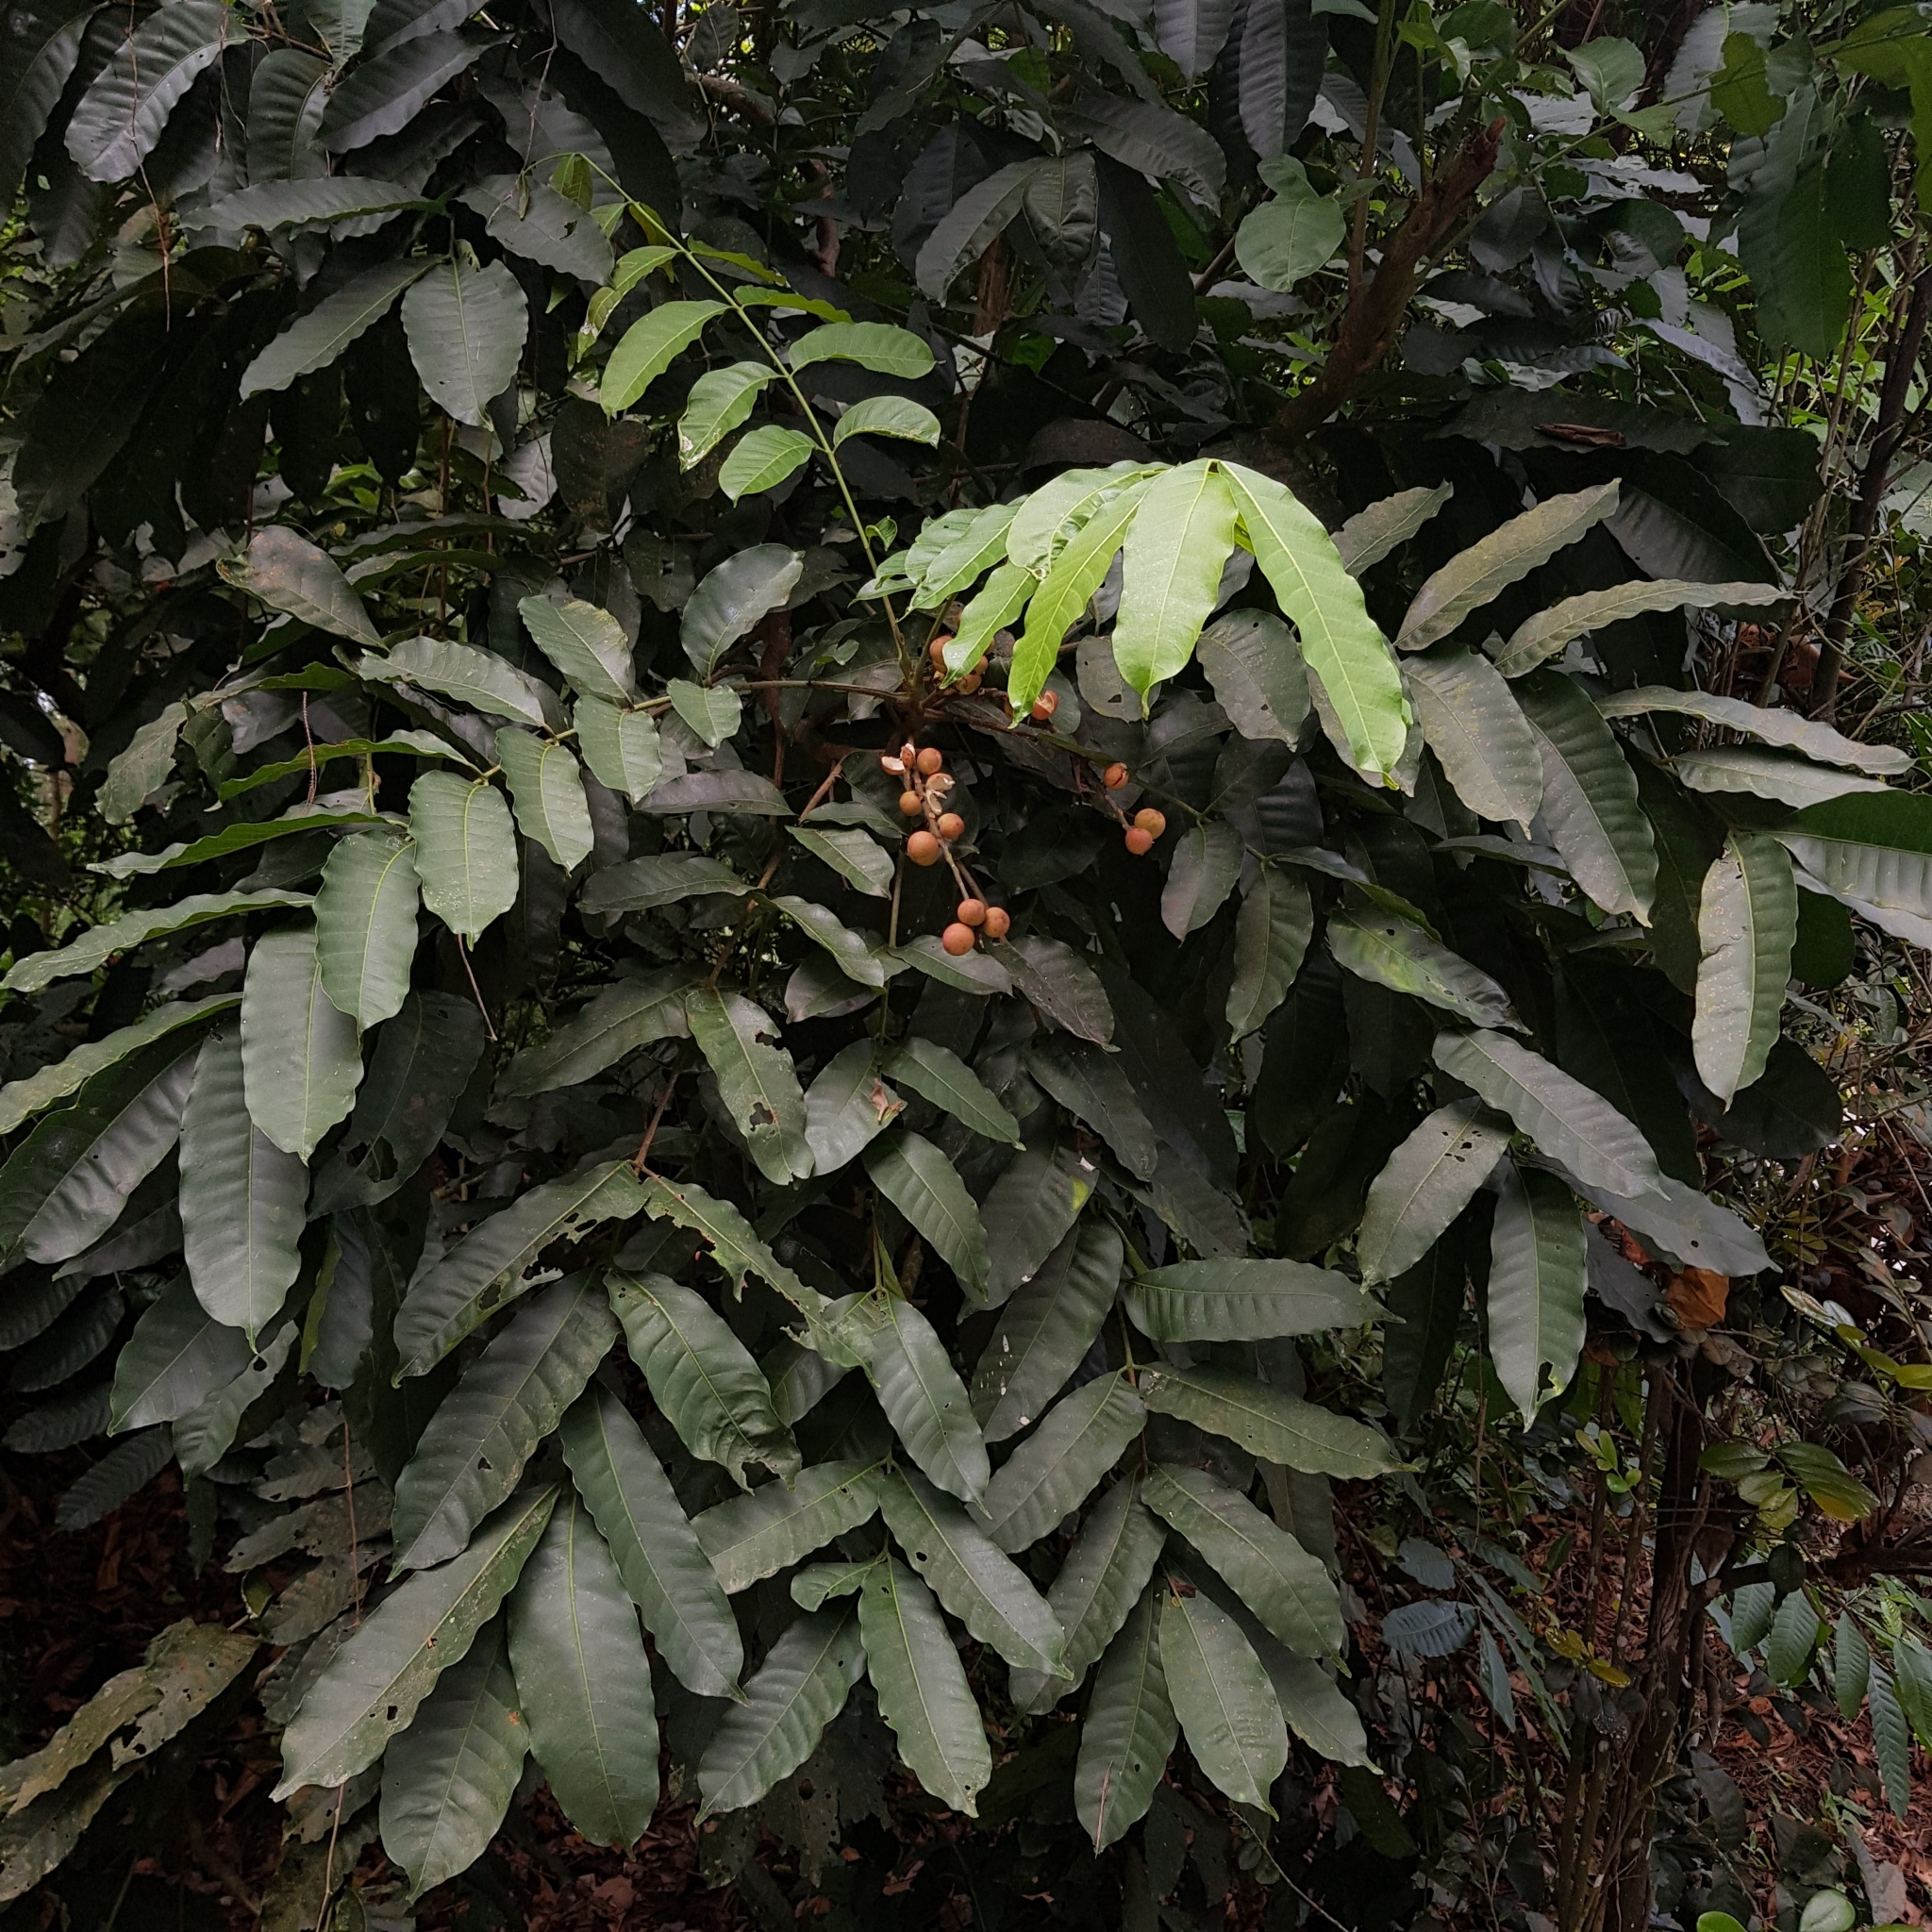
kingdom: Plantae
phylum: Tracheophyta
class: Magnoliopsida
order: Sapindales
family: Meliaceae
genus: Aphanamixis
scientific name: Aphanamixis polystachya
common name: Pithraj tree
